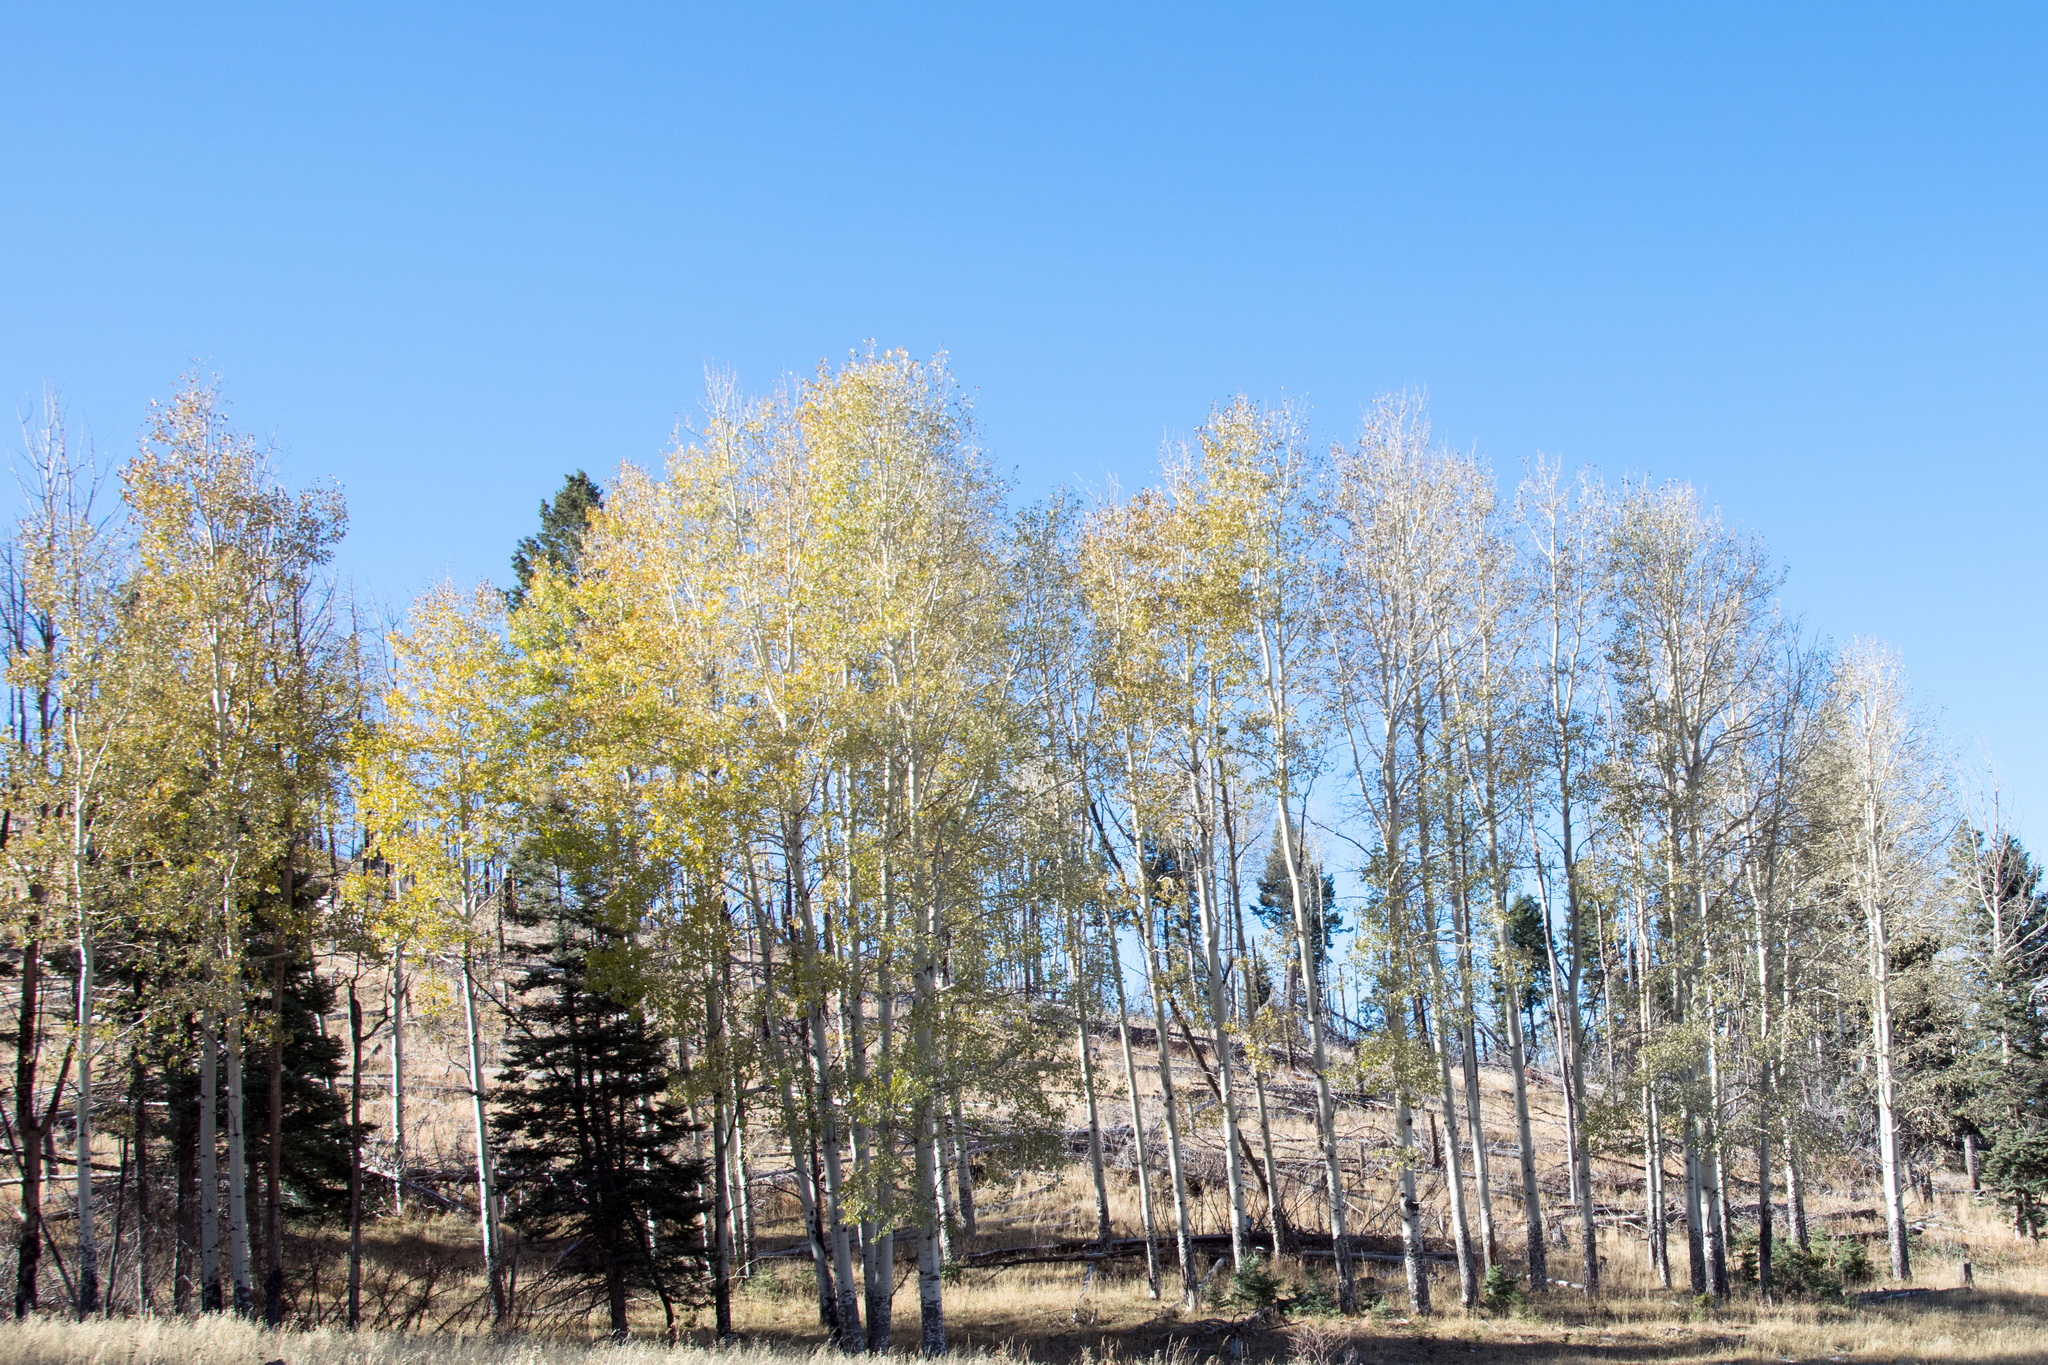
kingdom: Plantae
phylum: Tracheophyta
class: Magnoliopsida
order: Malpighiales
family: Salicaceae
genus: Populus
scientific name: Populus tremuloides
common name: Quaking aspen
